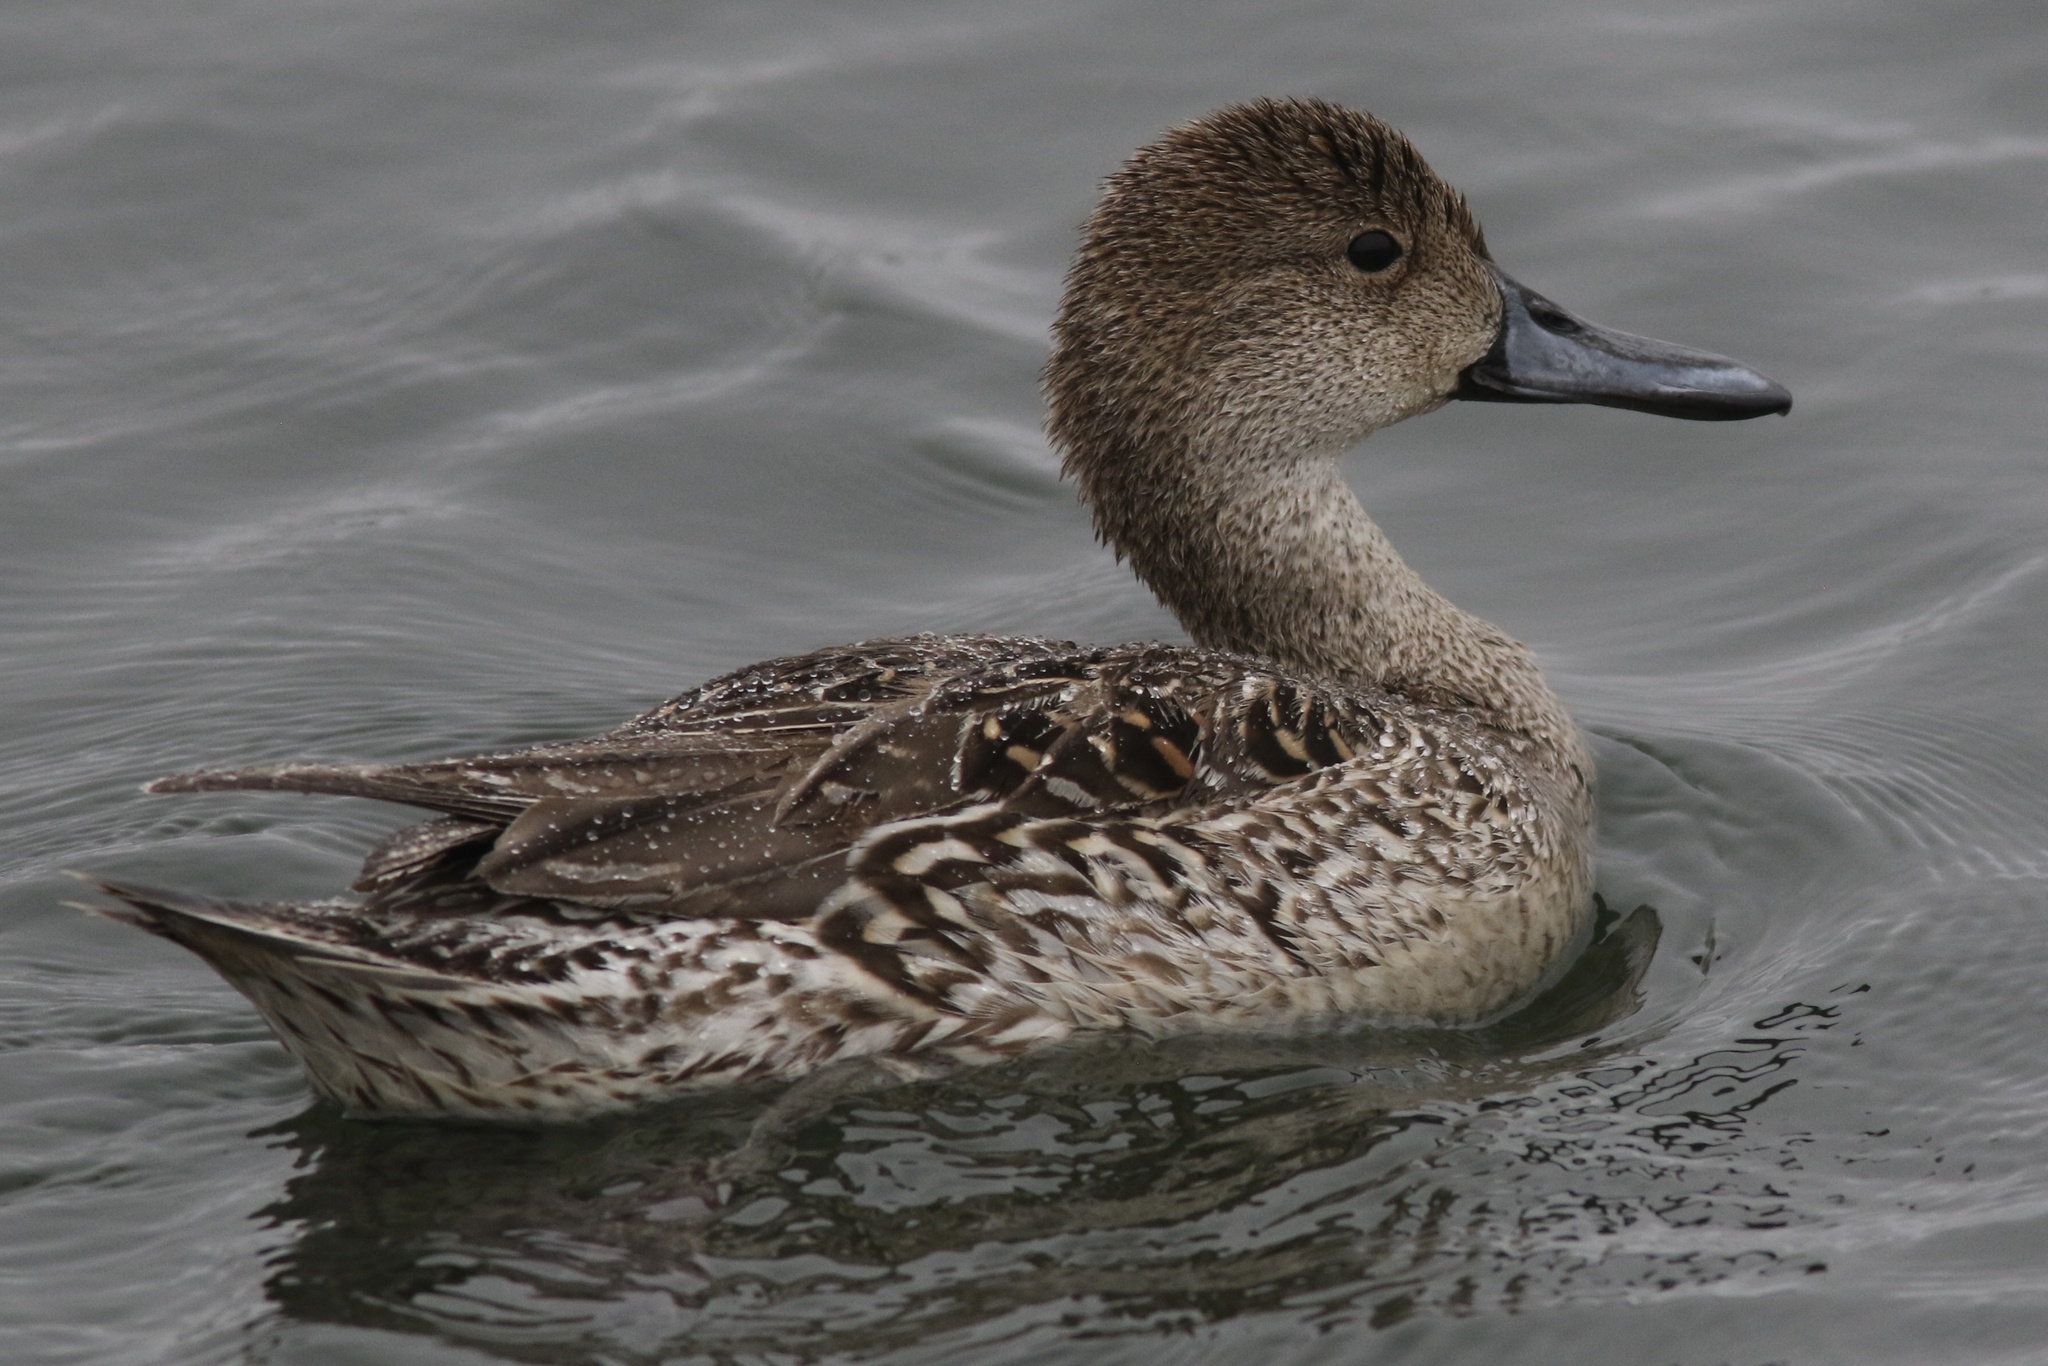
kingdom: Animalia
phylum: Chordata
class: Aves
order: Anseriformes
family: Anatidae
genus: Anas
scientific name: Anas acuta
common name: Northern pintail
